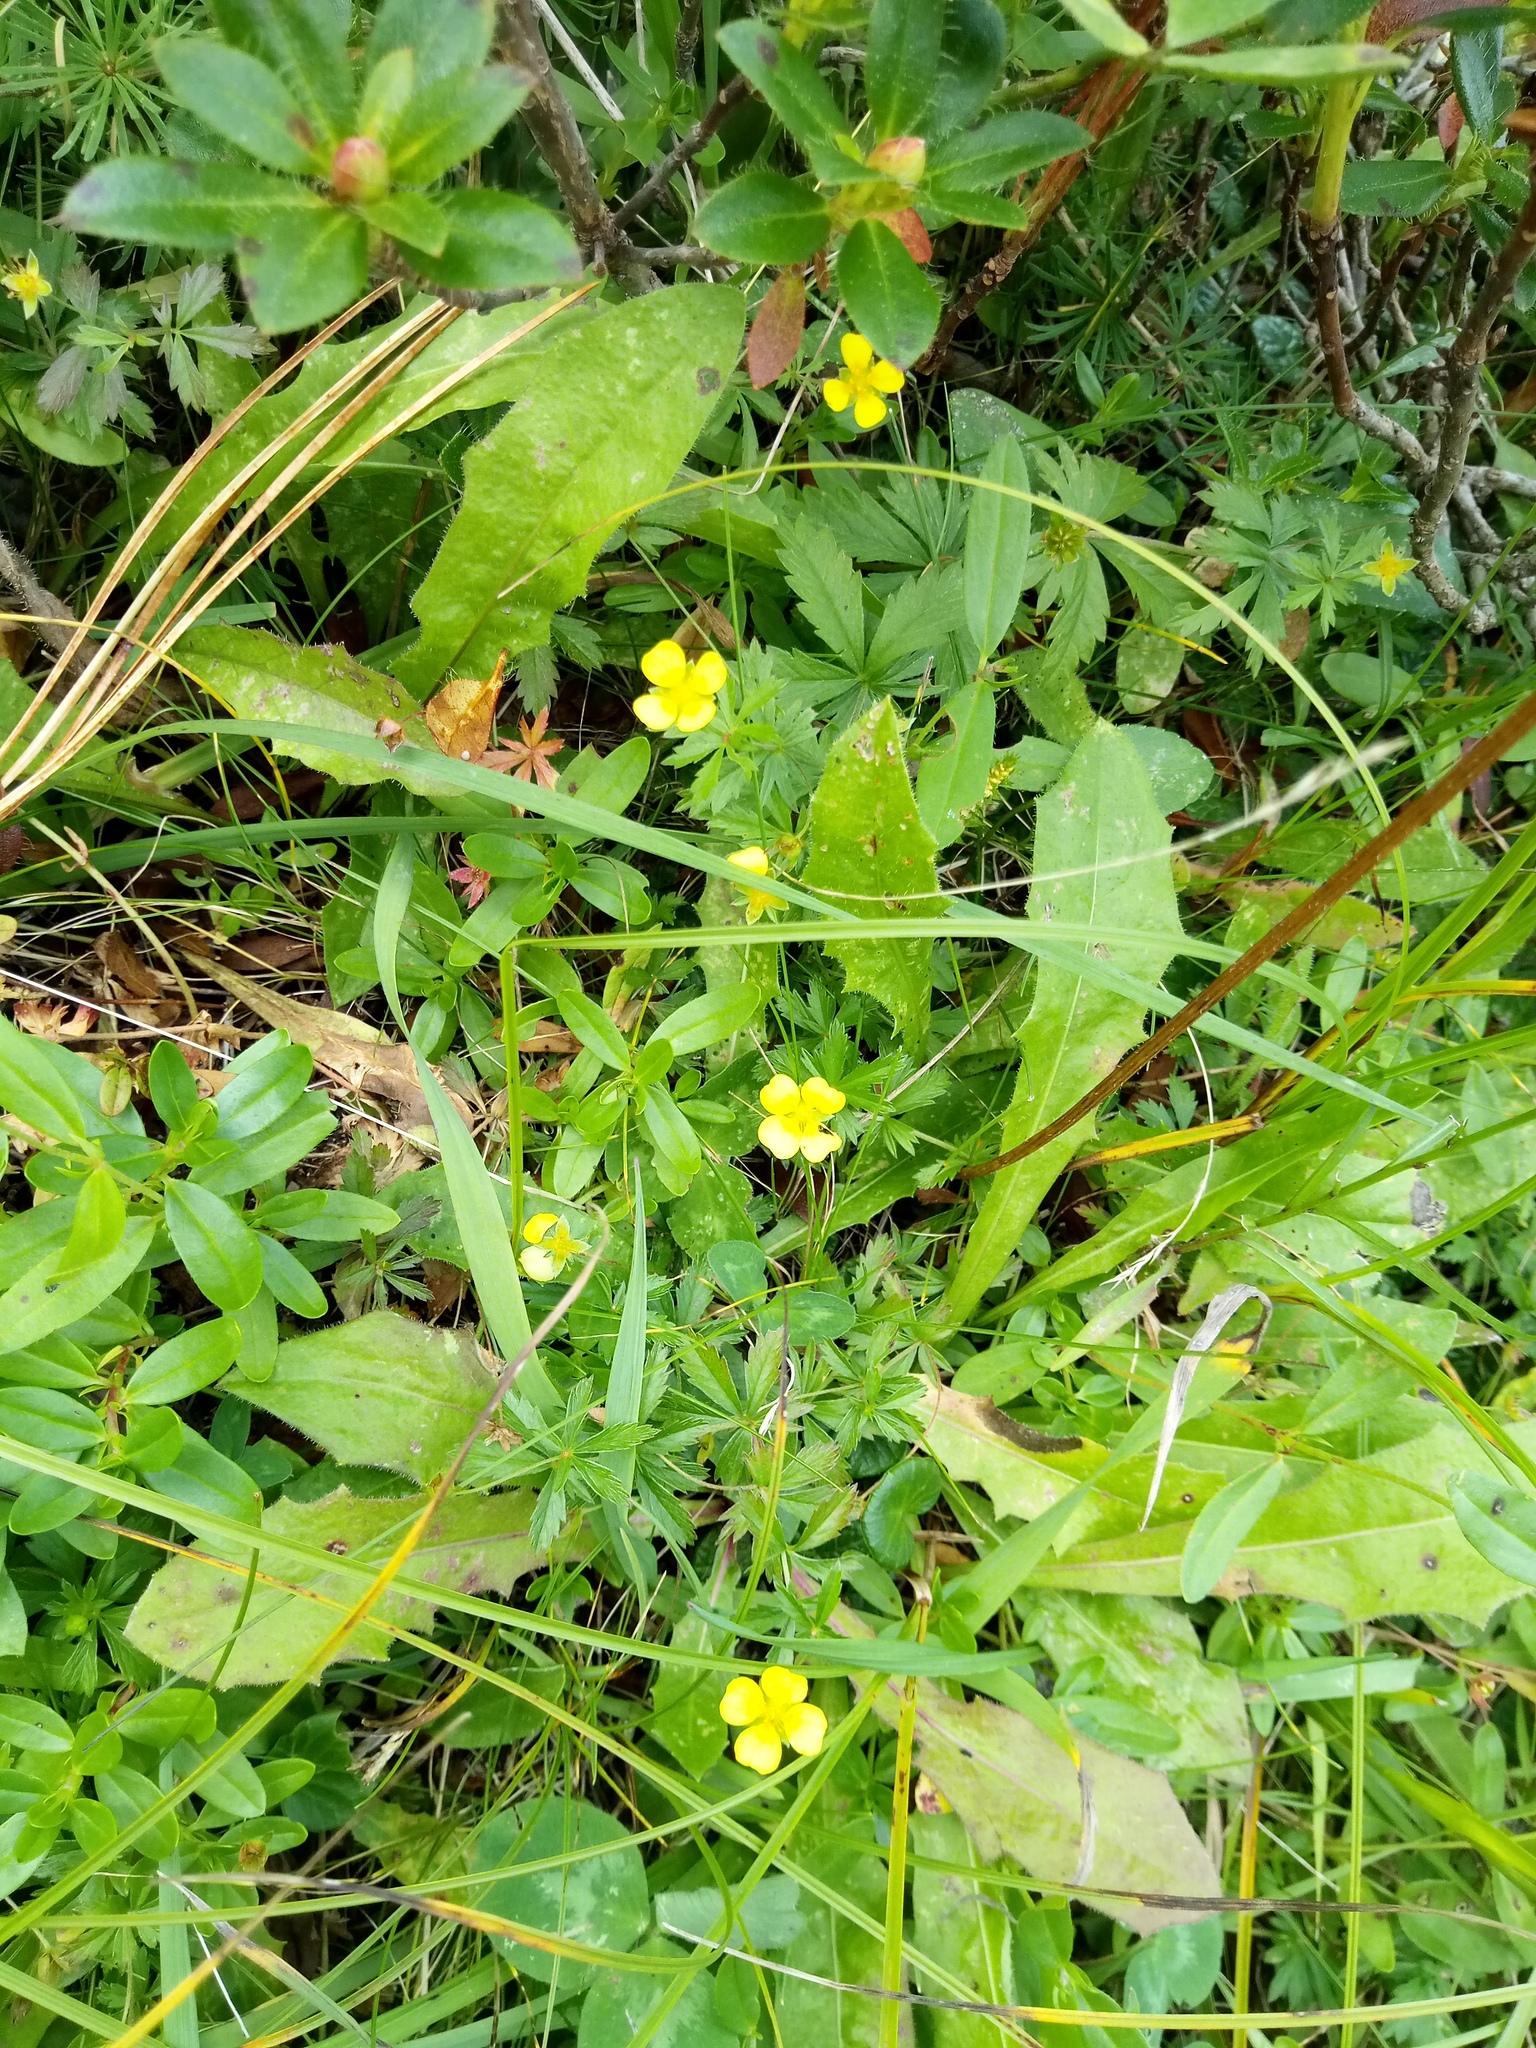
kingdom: Plantae
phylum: Tracheophyta
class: Magnoliopsida
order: Rosales
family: Rosaceae
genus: Potentilla
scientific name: Potentilla erecta
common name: Tormentil
